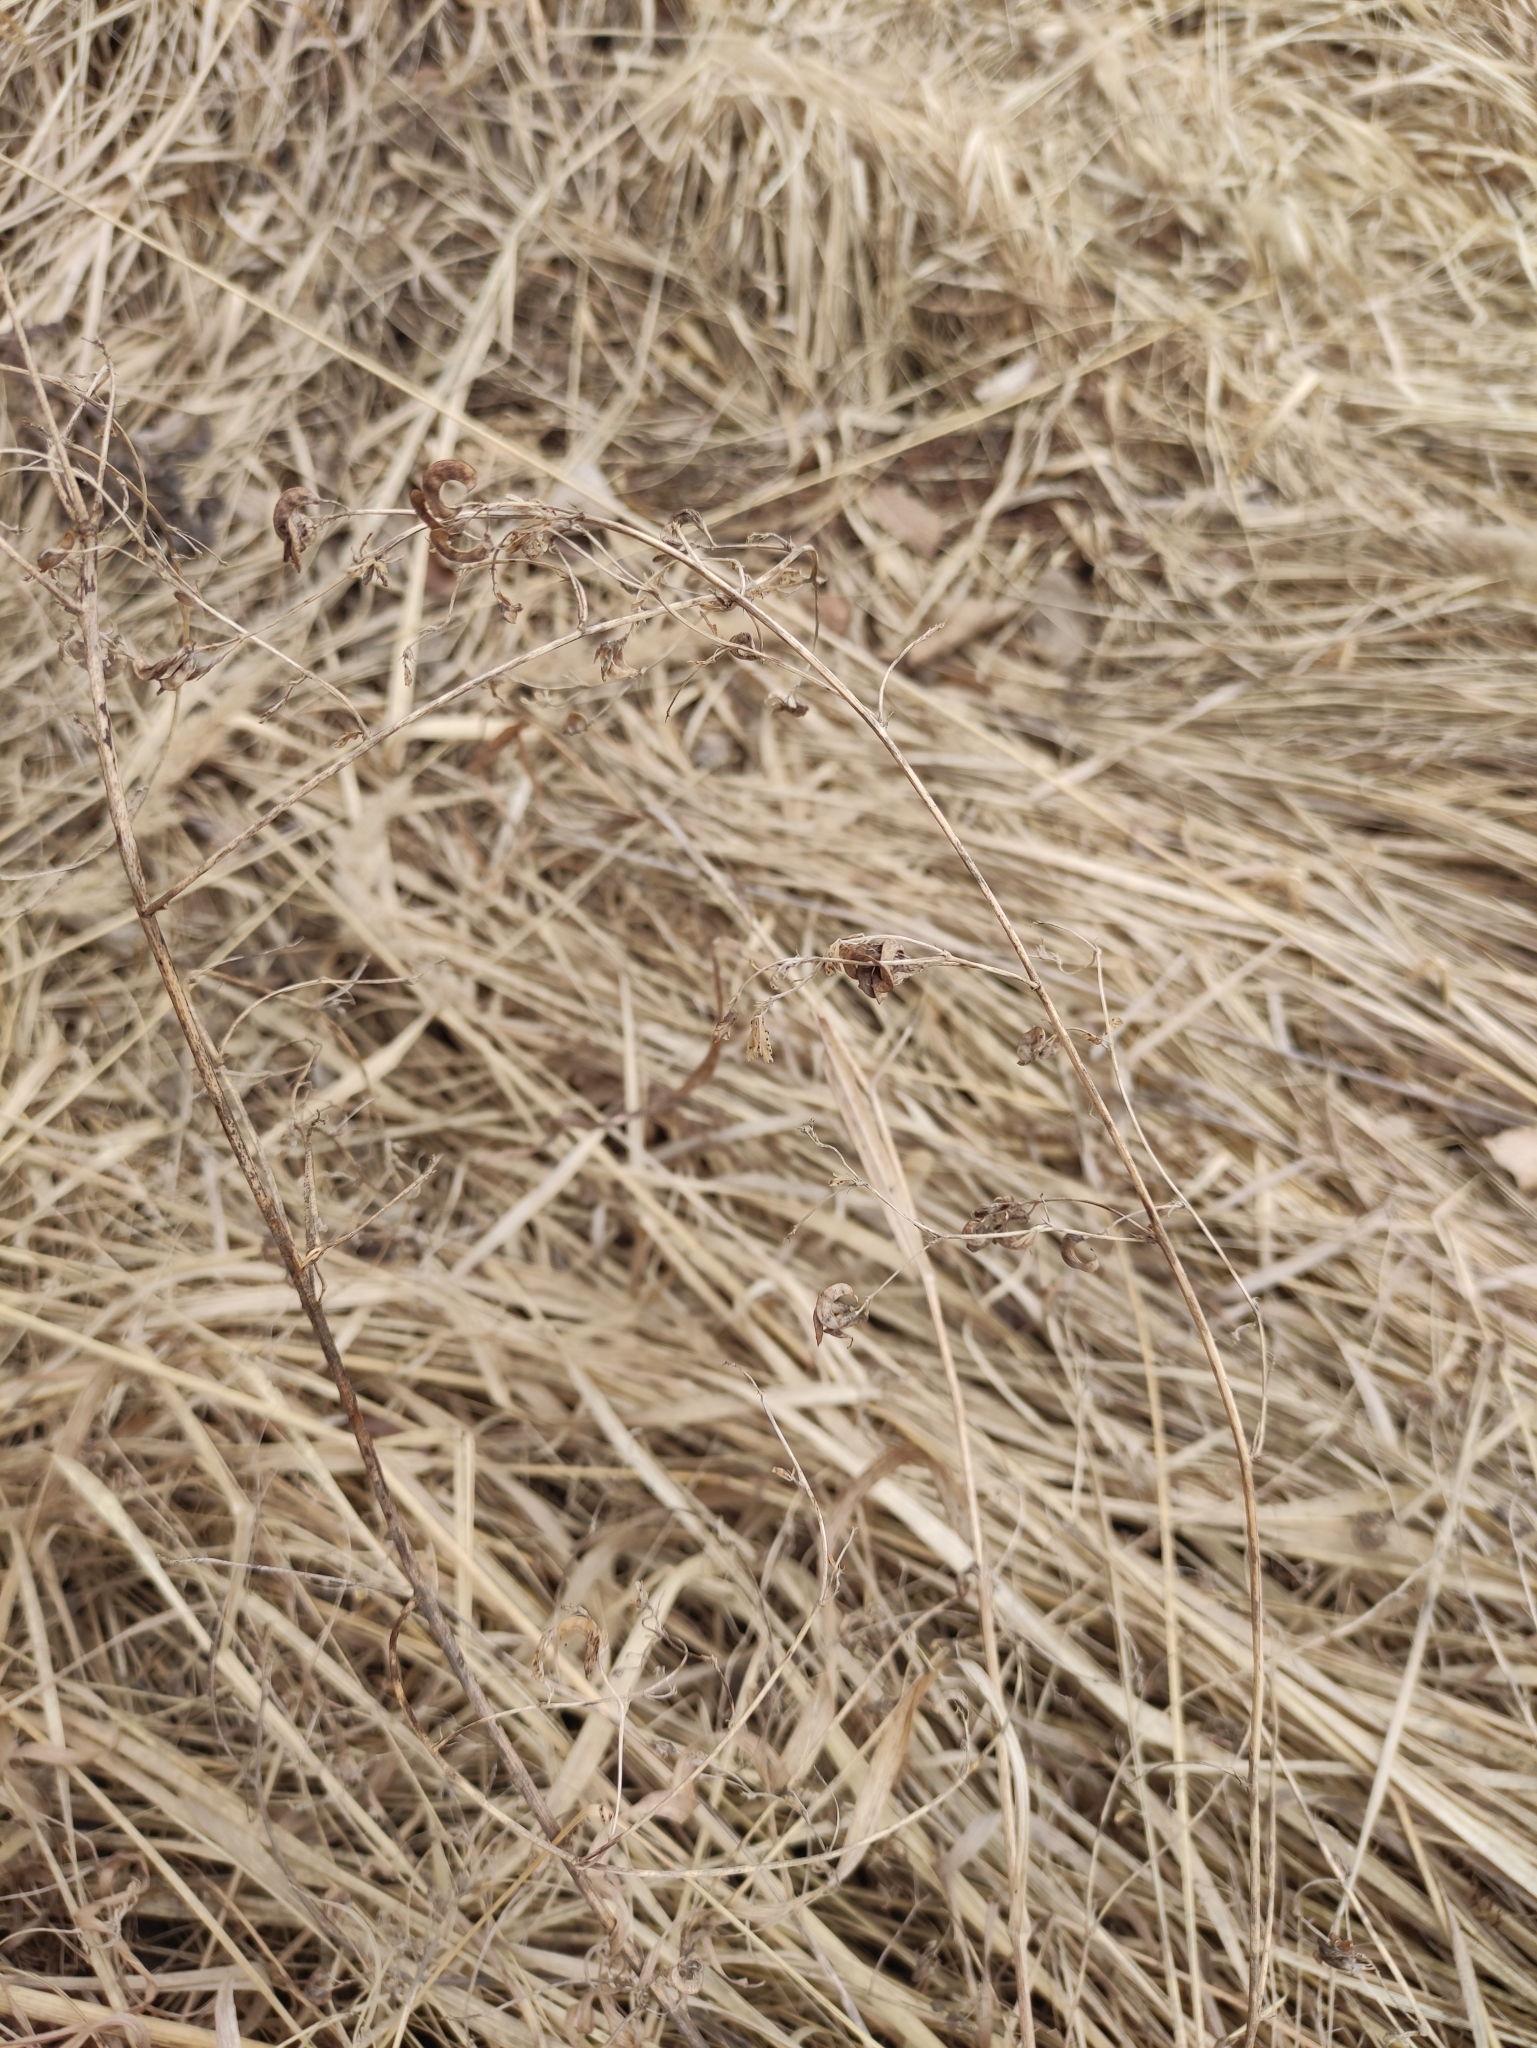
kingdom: Plantae
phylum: Tracheophyta
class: Magnoliopsida
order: Fabales
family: Fabaceae
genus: Medicago
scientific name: Medicago falcata
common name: Sickle medick
